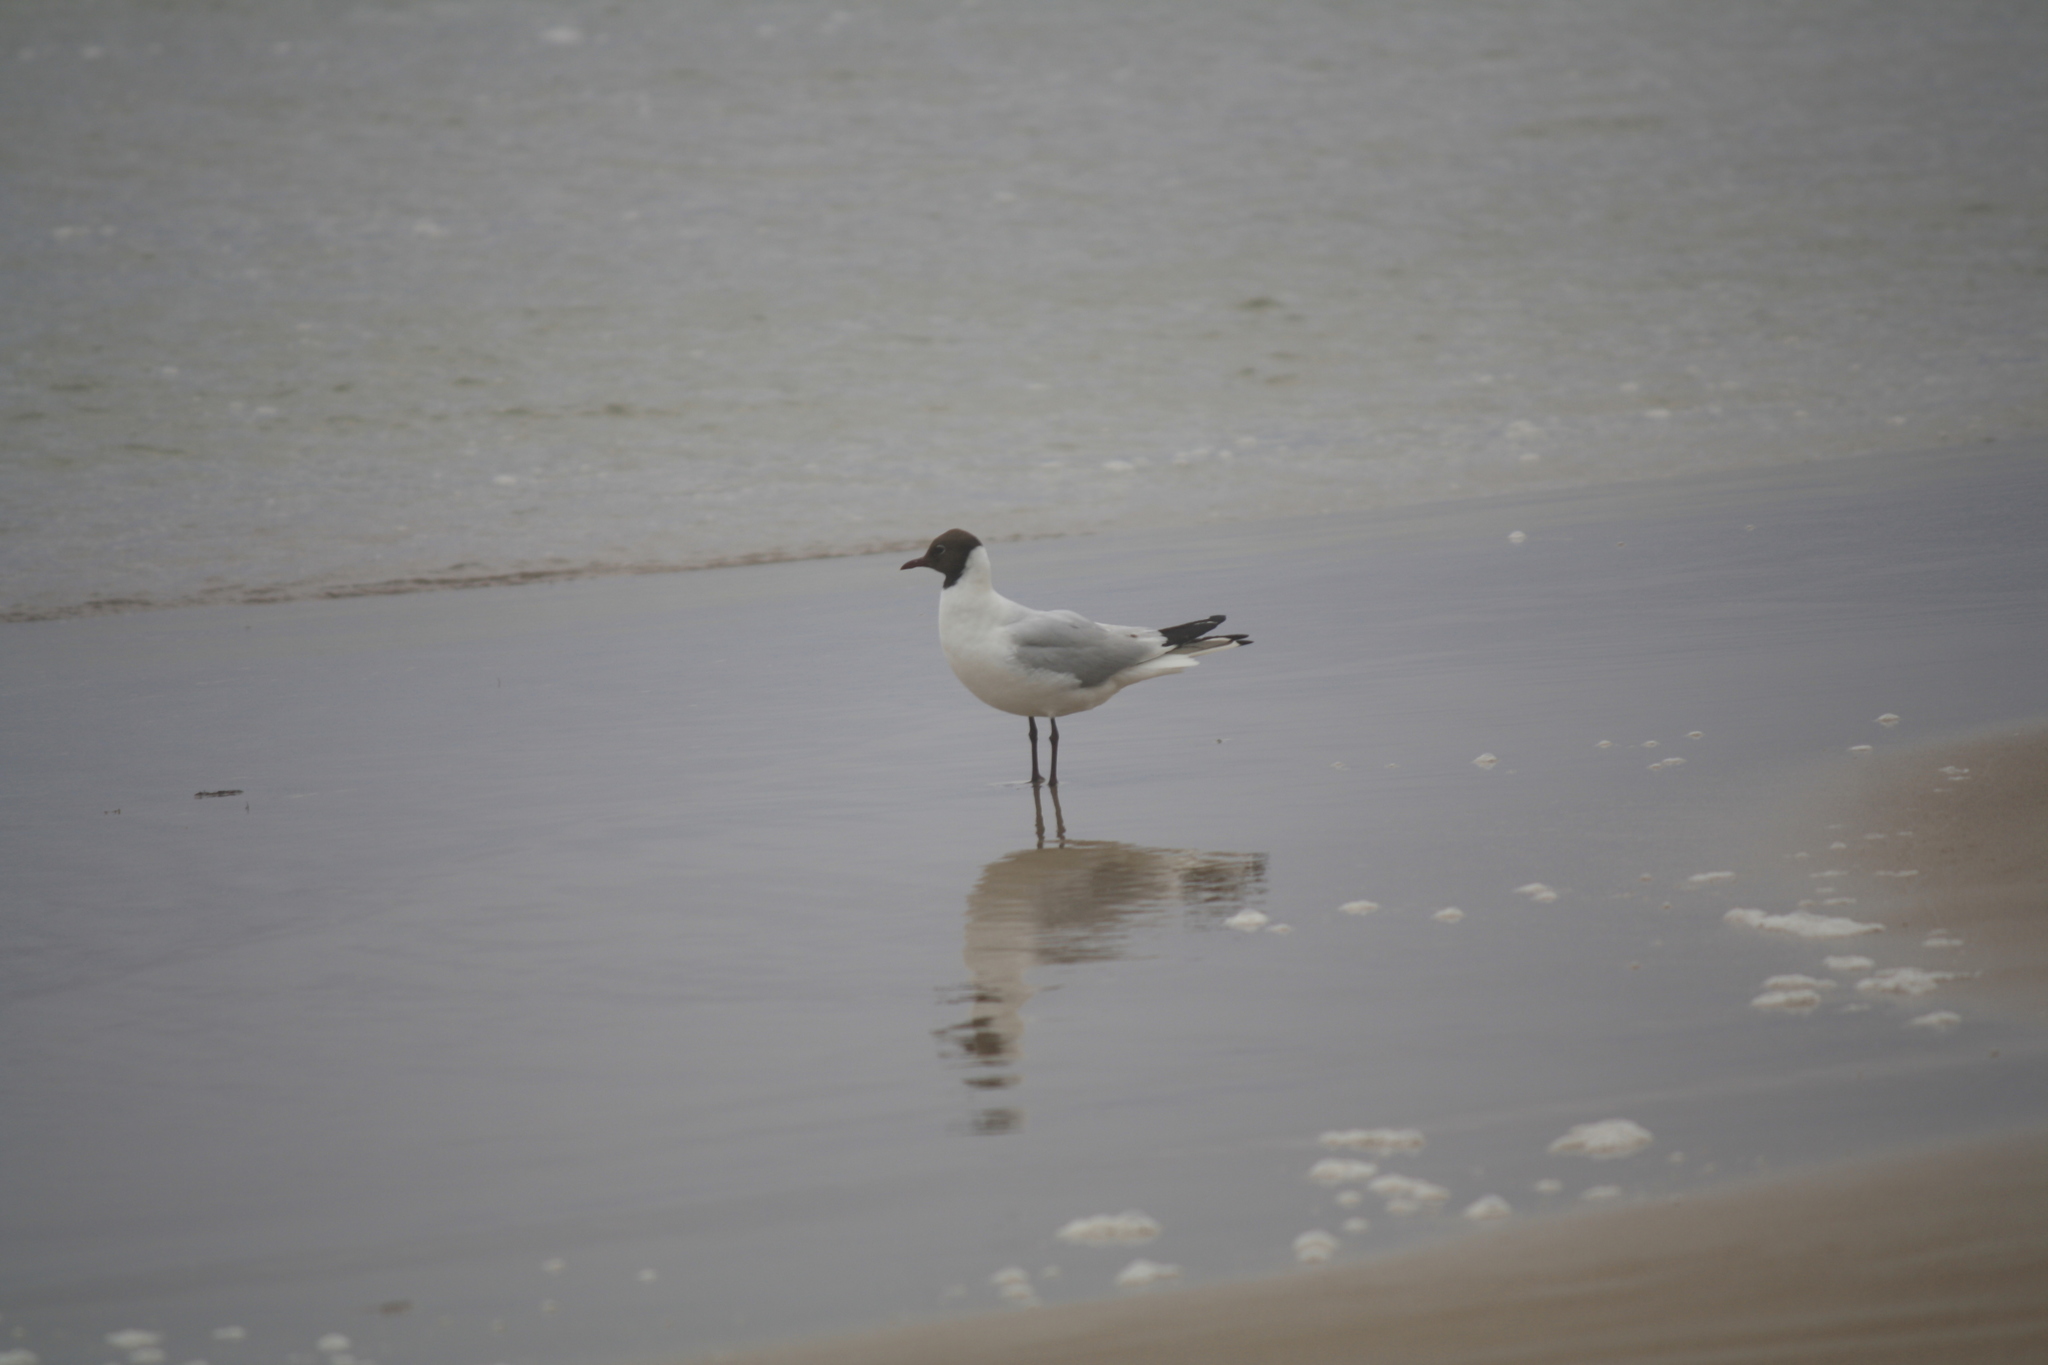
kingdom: Animalia
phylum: Chordata
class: Aves
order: Charadriiformes
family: Laridae
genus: Chroicocephalus
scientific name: Chroicocephalus ridibundus
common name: Black-headed gull
